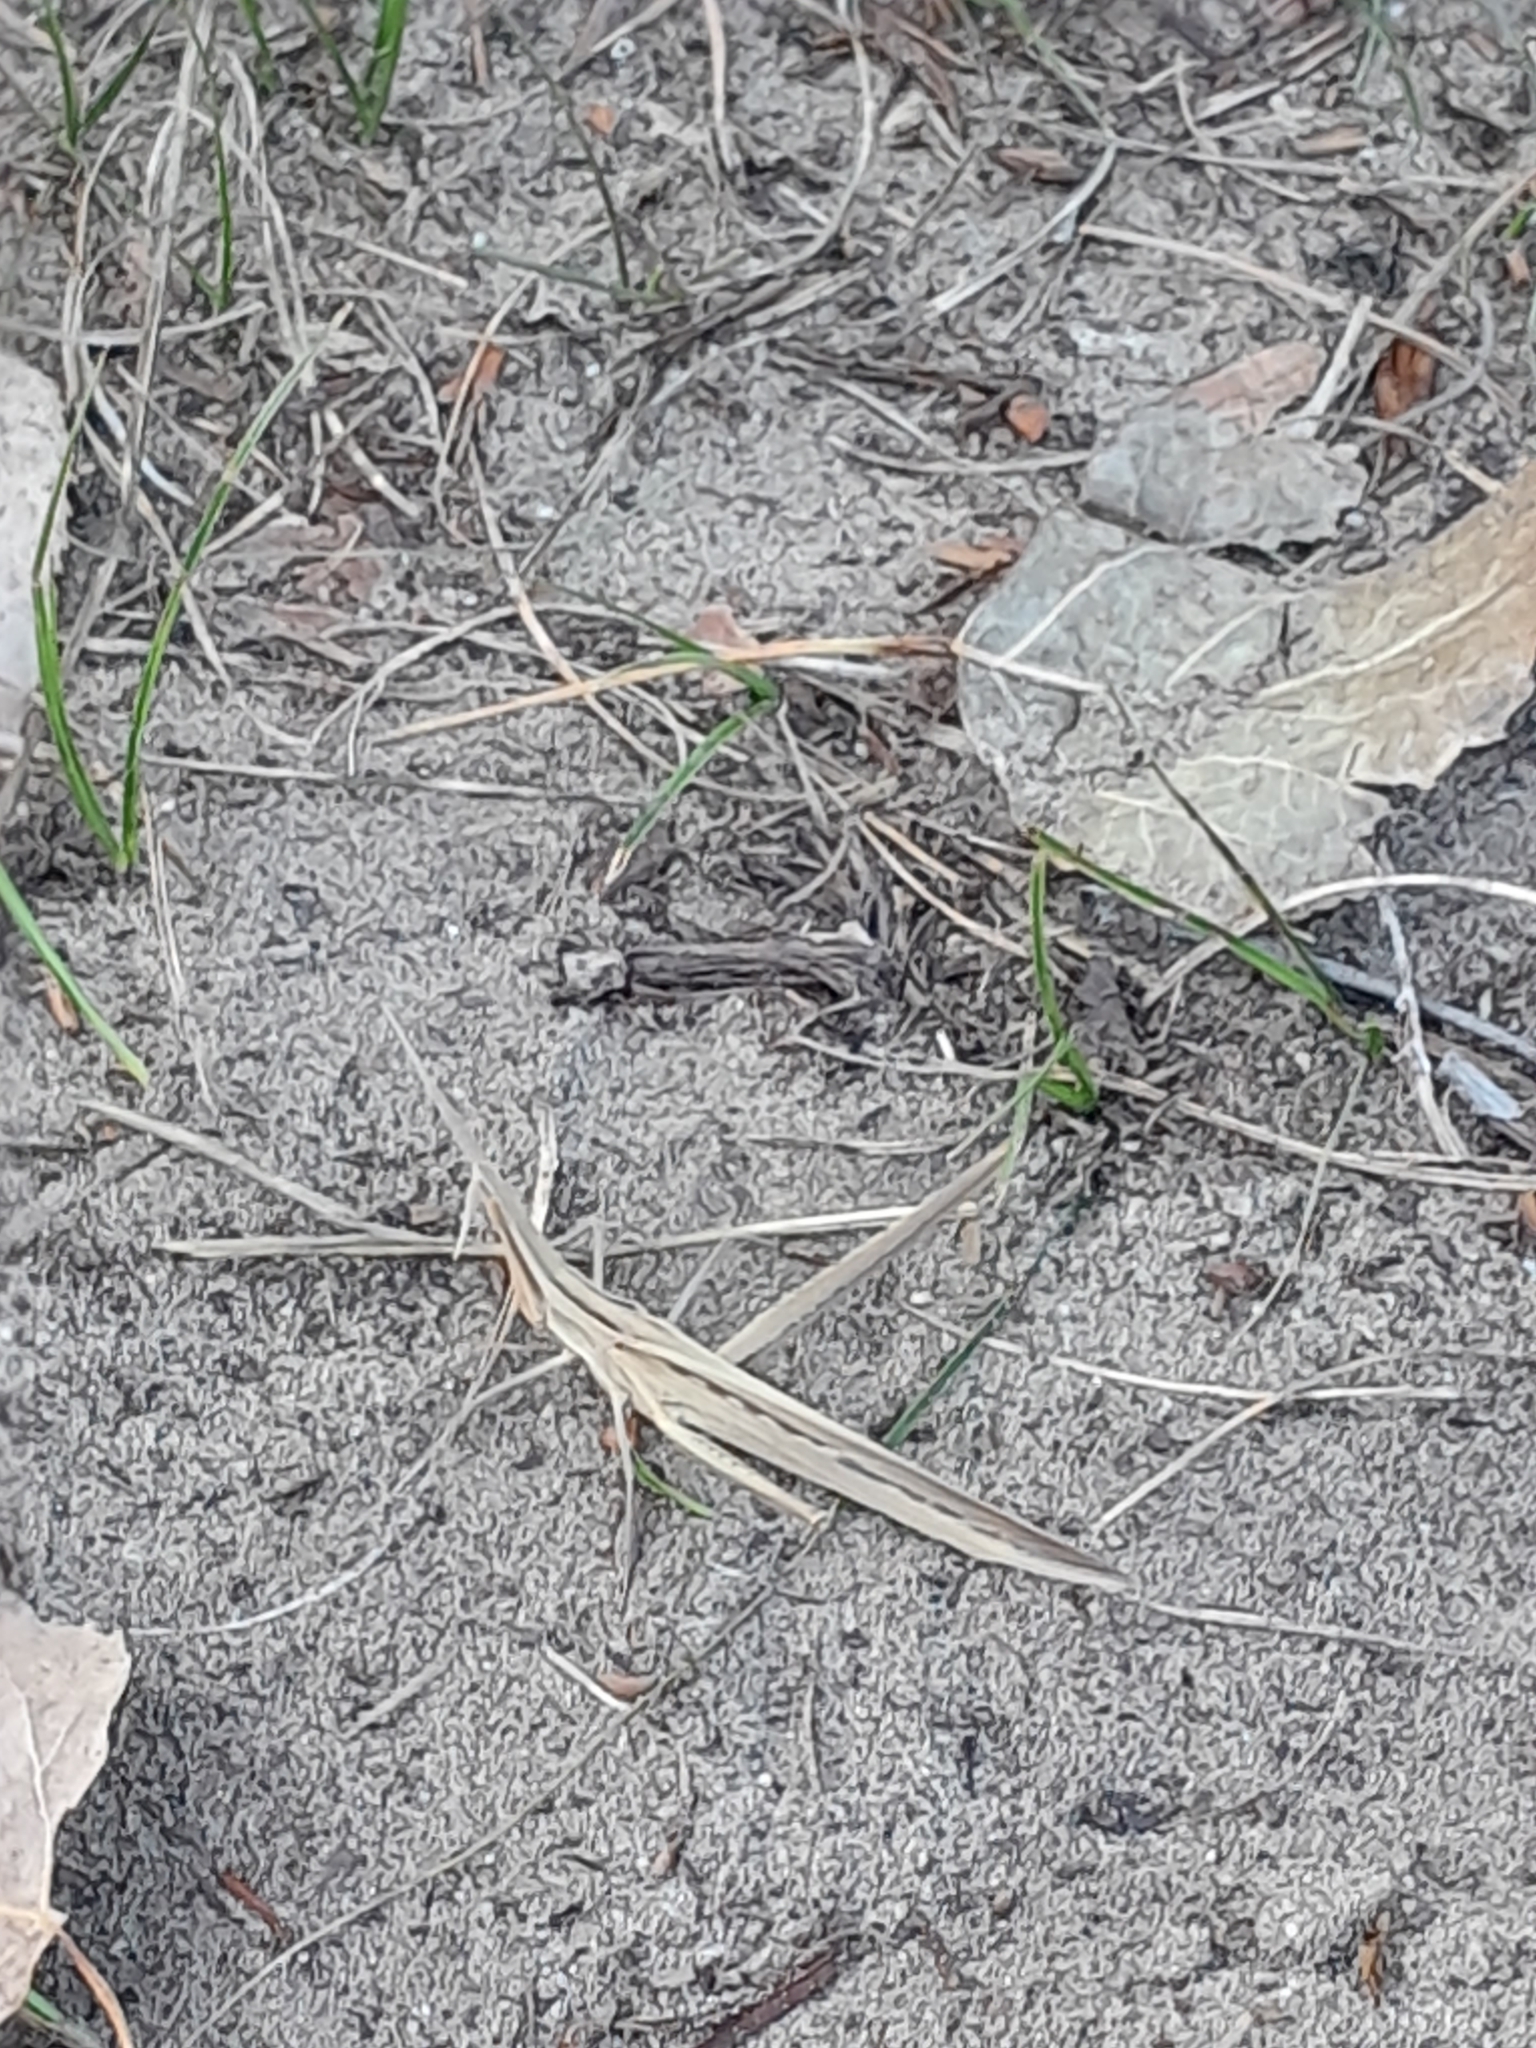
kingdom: Animalia
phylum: Arthropoda
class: Insecta
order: Orthoptera
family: Acrididae
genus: Acrida
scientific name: Acrida ungarica
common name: Common cone-headed grasshopper
